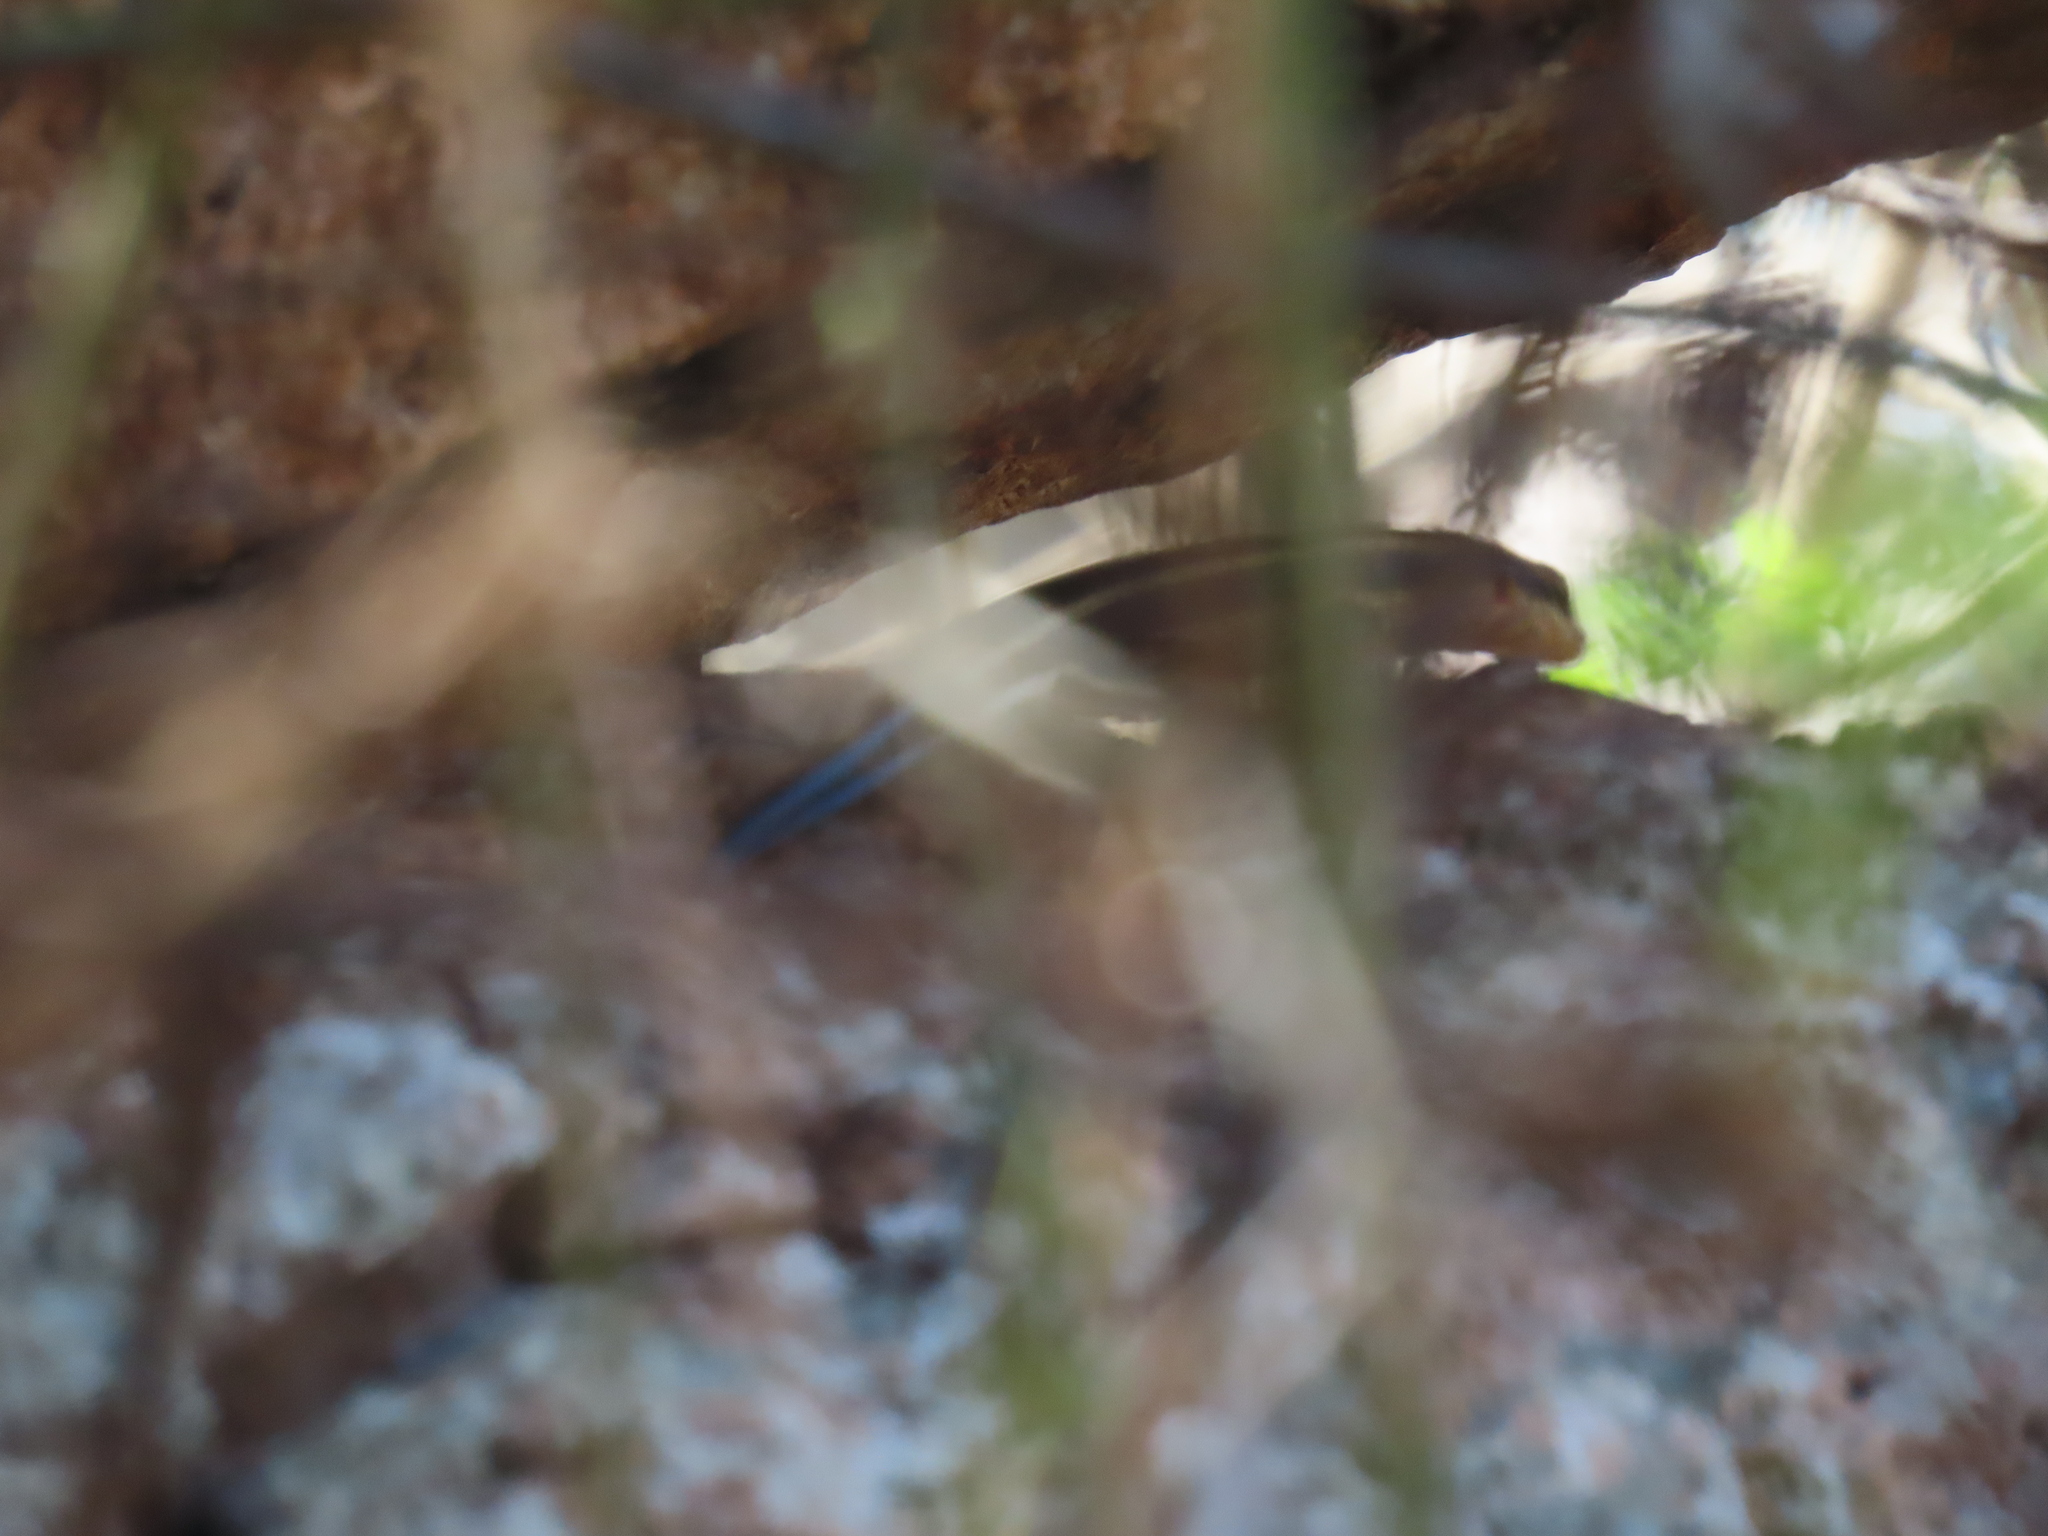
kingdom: Animalia
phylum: Chordata
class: Squamata
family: Scincidae
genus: Trachylepis
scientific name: Trachylepis margaritifera
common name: Rainbow skink
